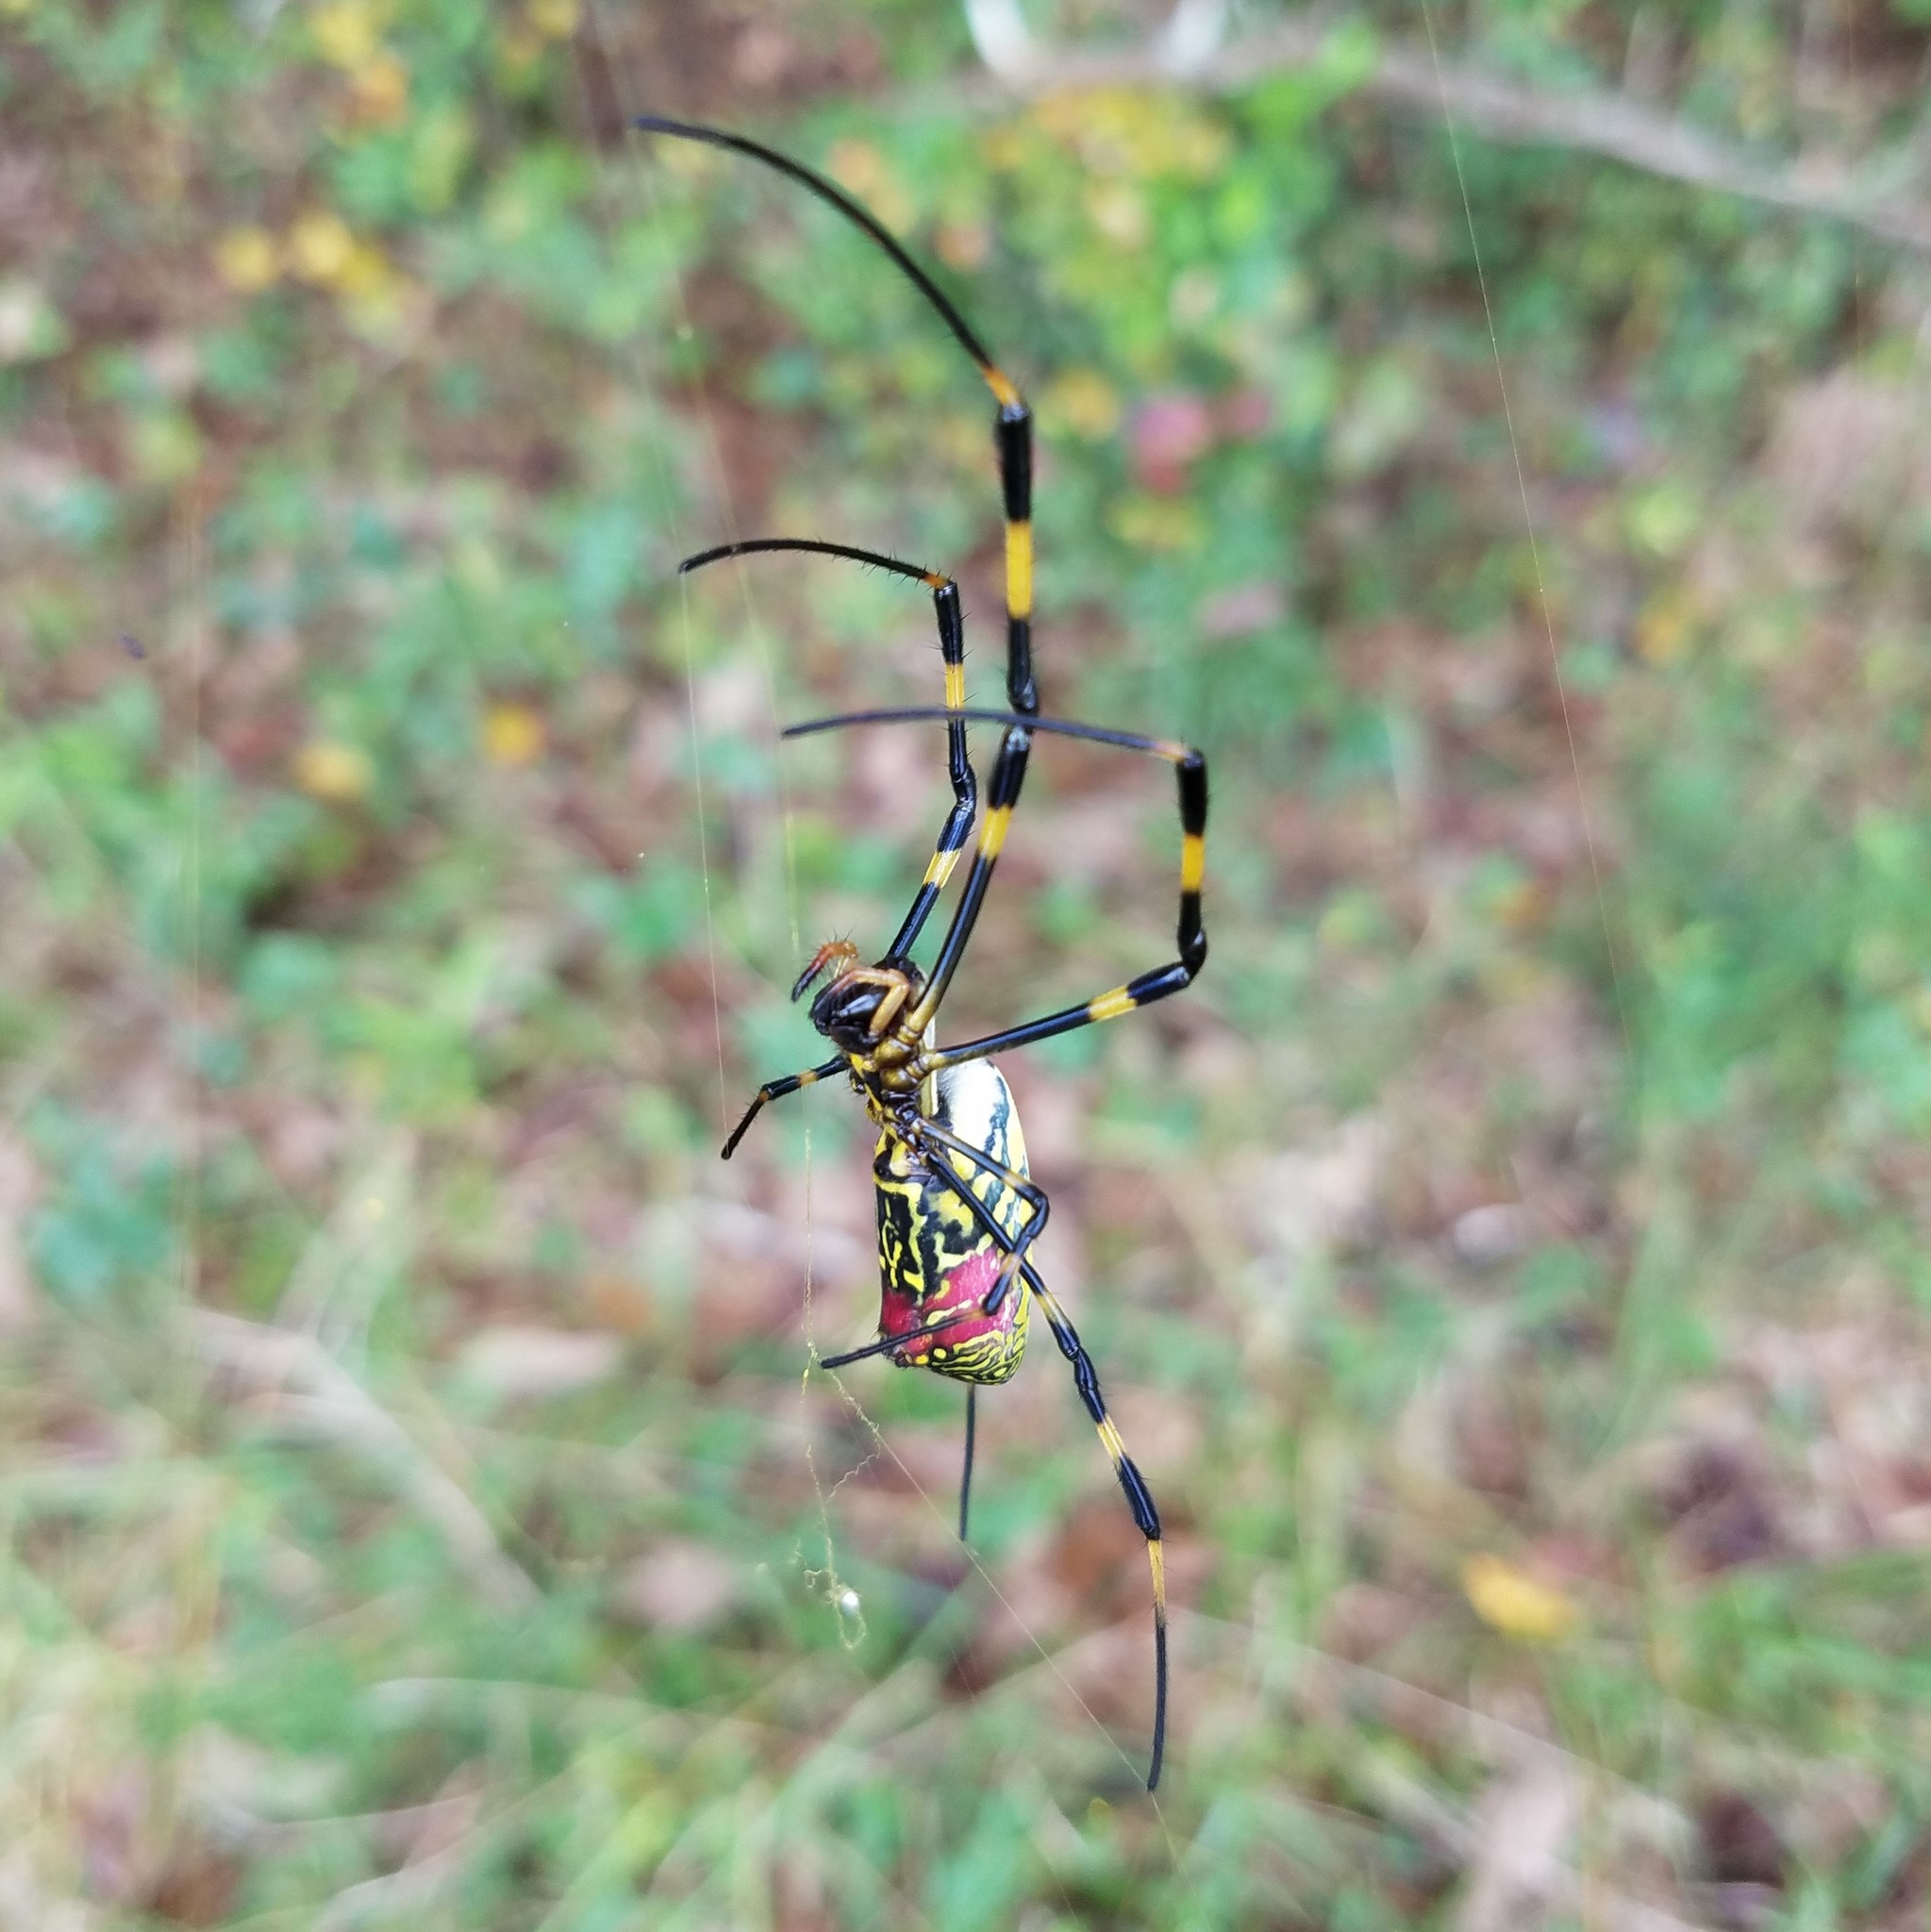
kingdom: Animalia
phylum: Arthropoda
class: Arachnida
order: Araneae
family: Araneidae
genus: Trichonephila
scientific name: Trichonephila clavata
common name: Jorō spider
